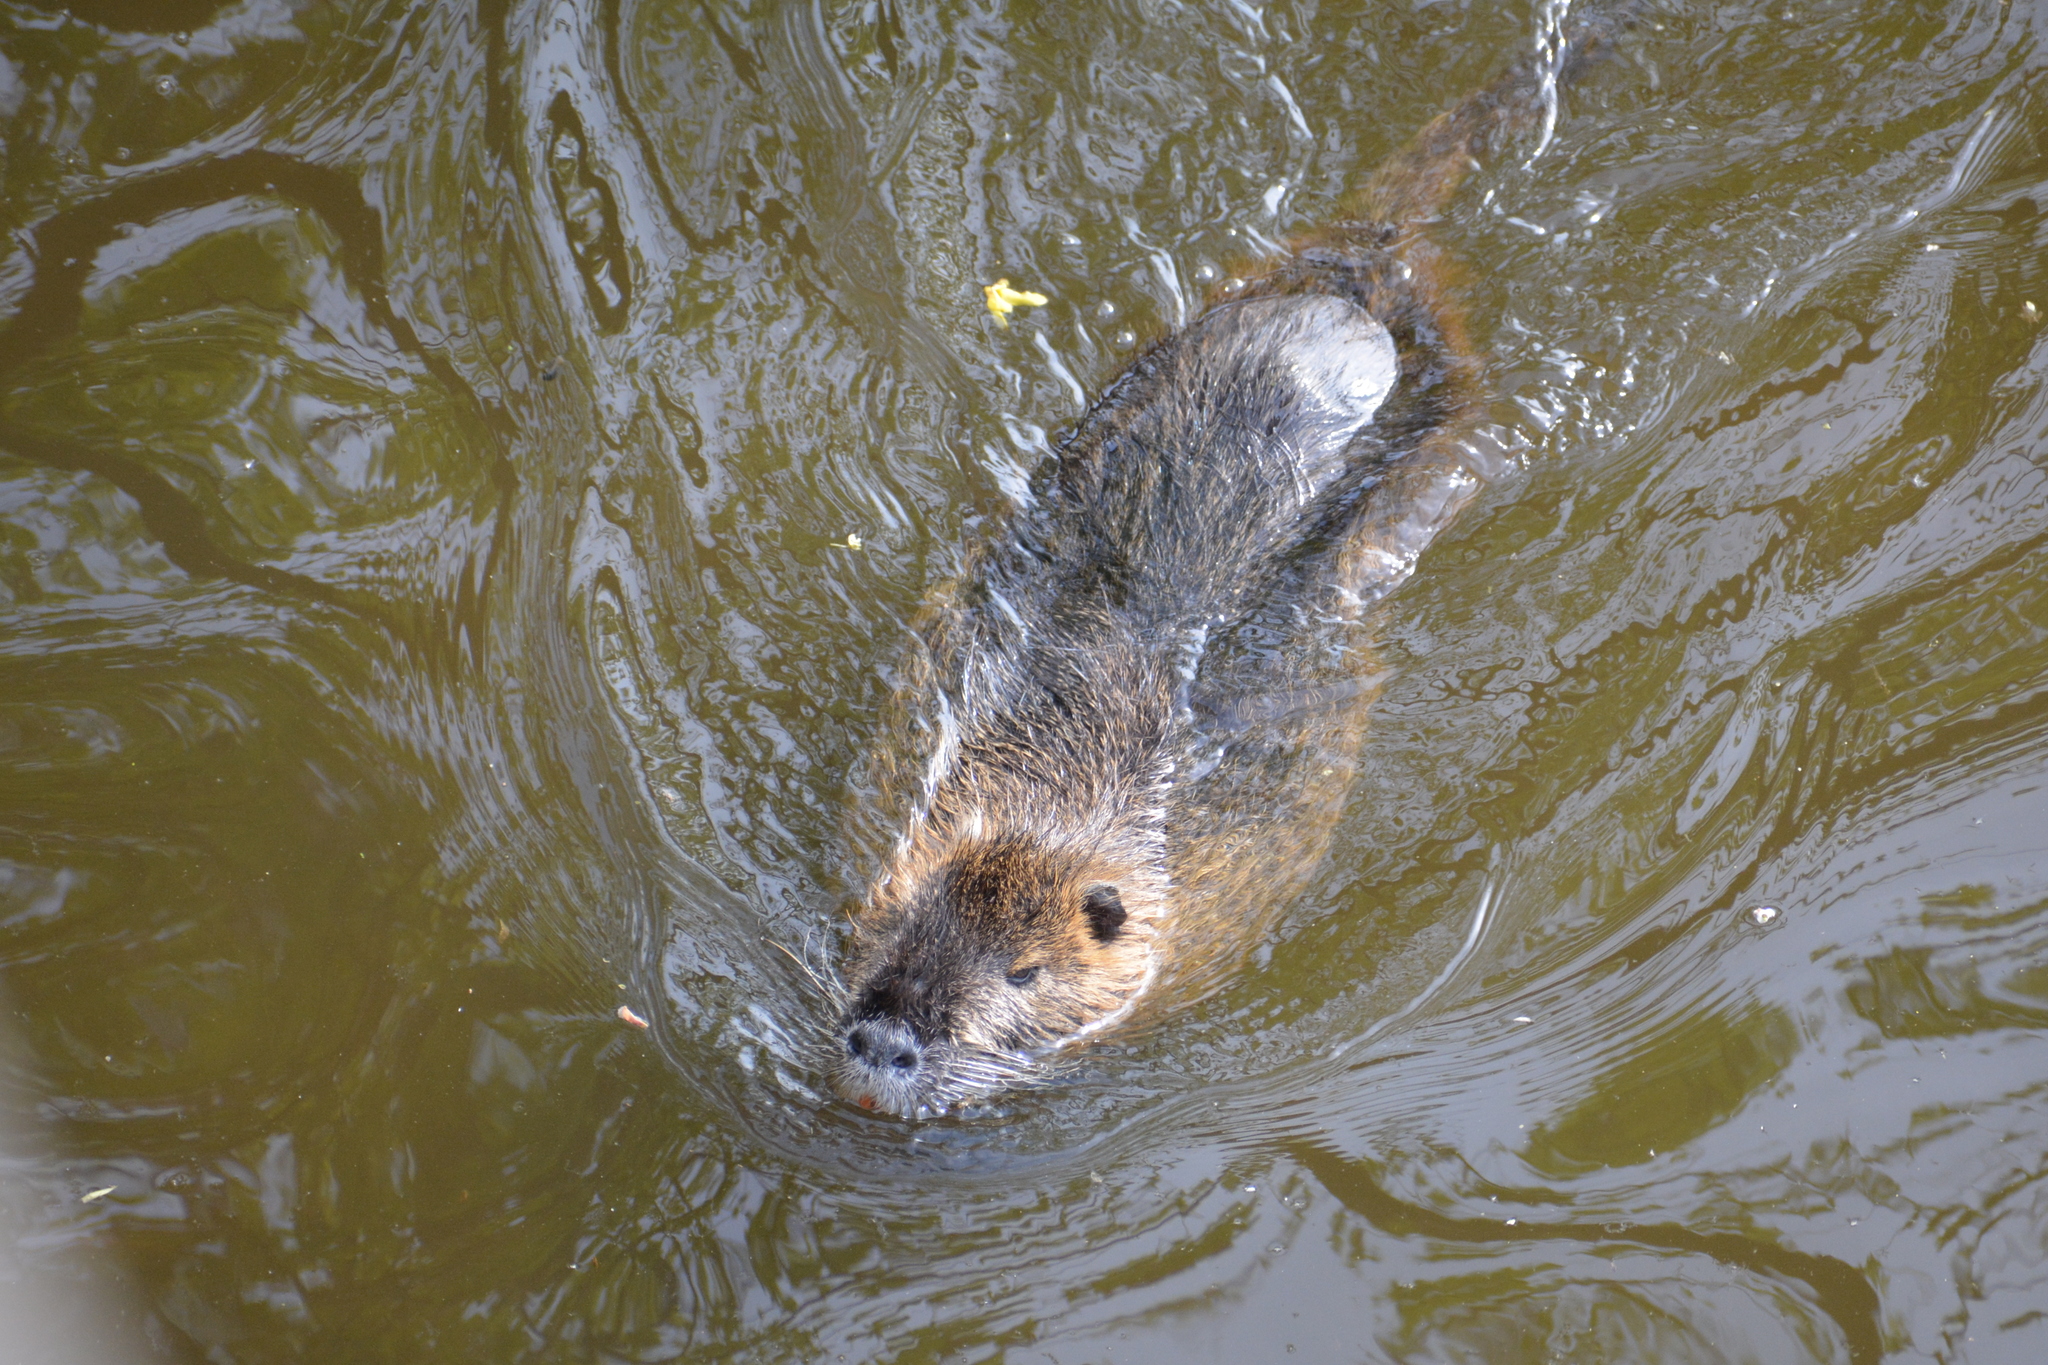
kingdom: Animalia
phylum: Chordata
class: Mammalia
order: Rodentia
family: Myocastoridae
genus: Myocastor
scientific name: Myocastor coypus
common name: Coypu
